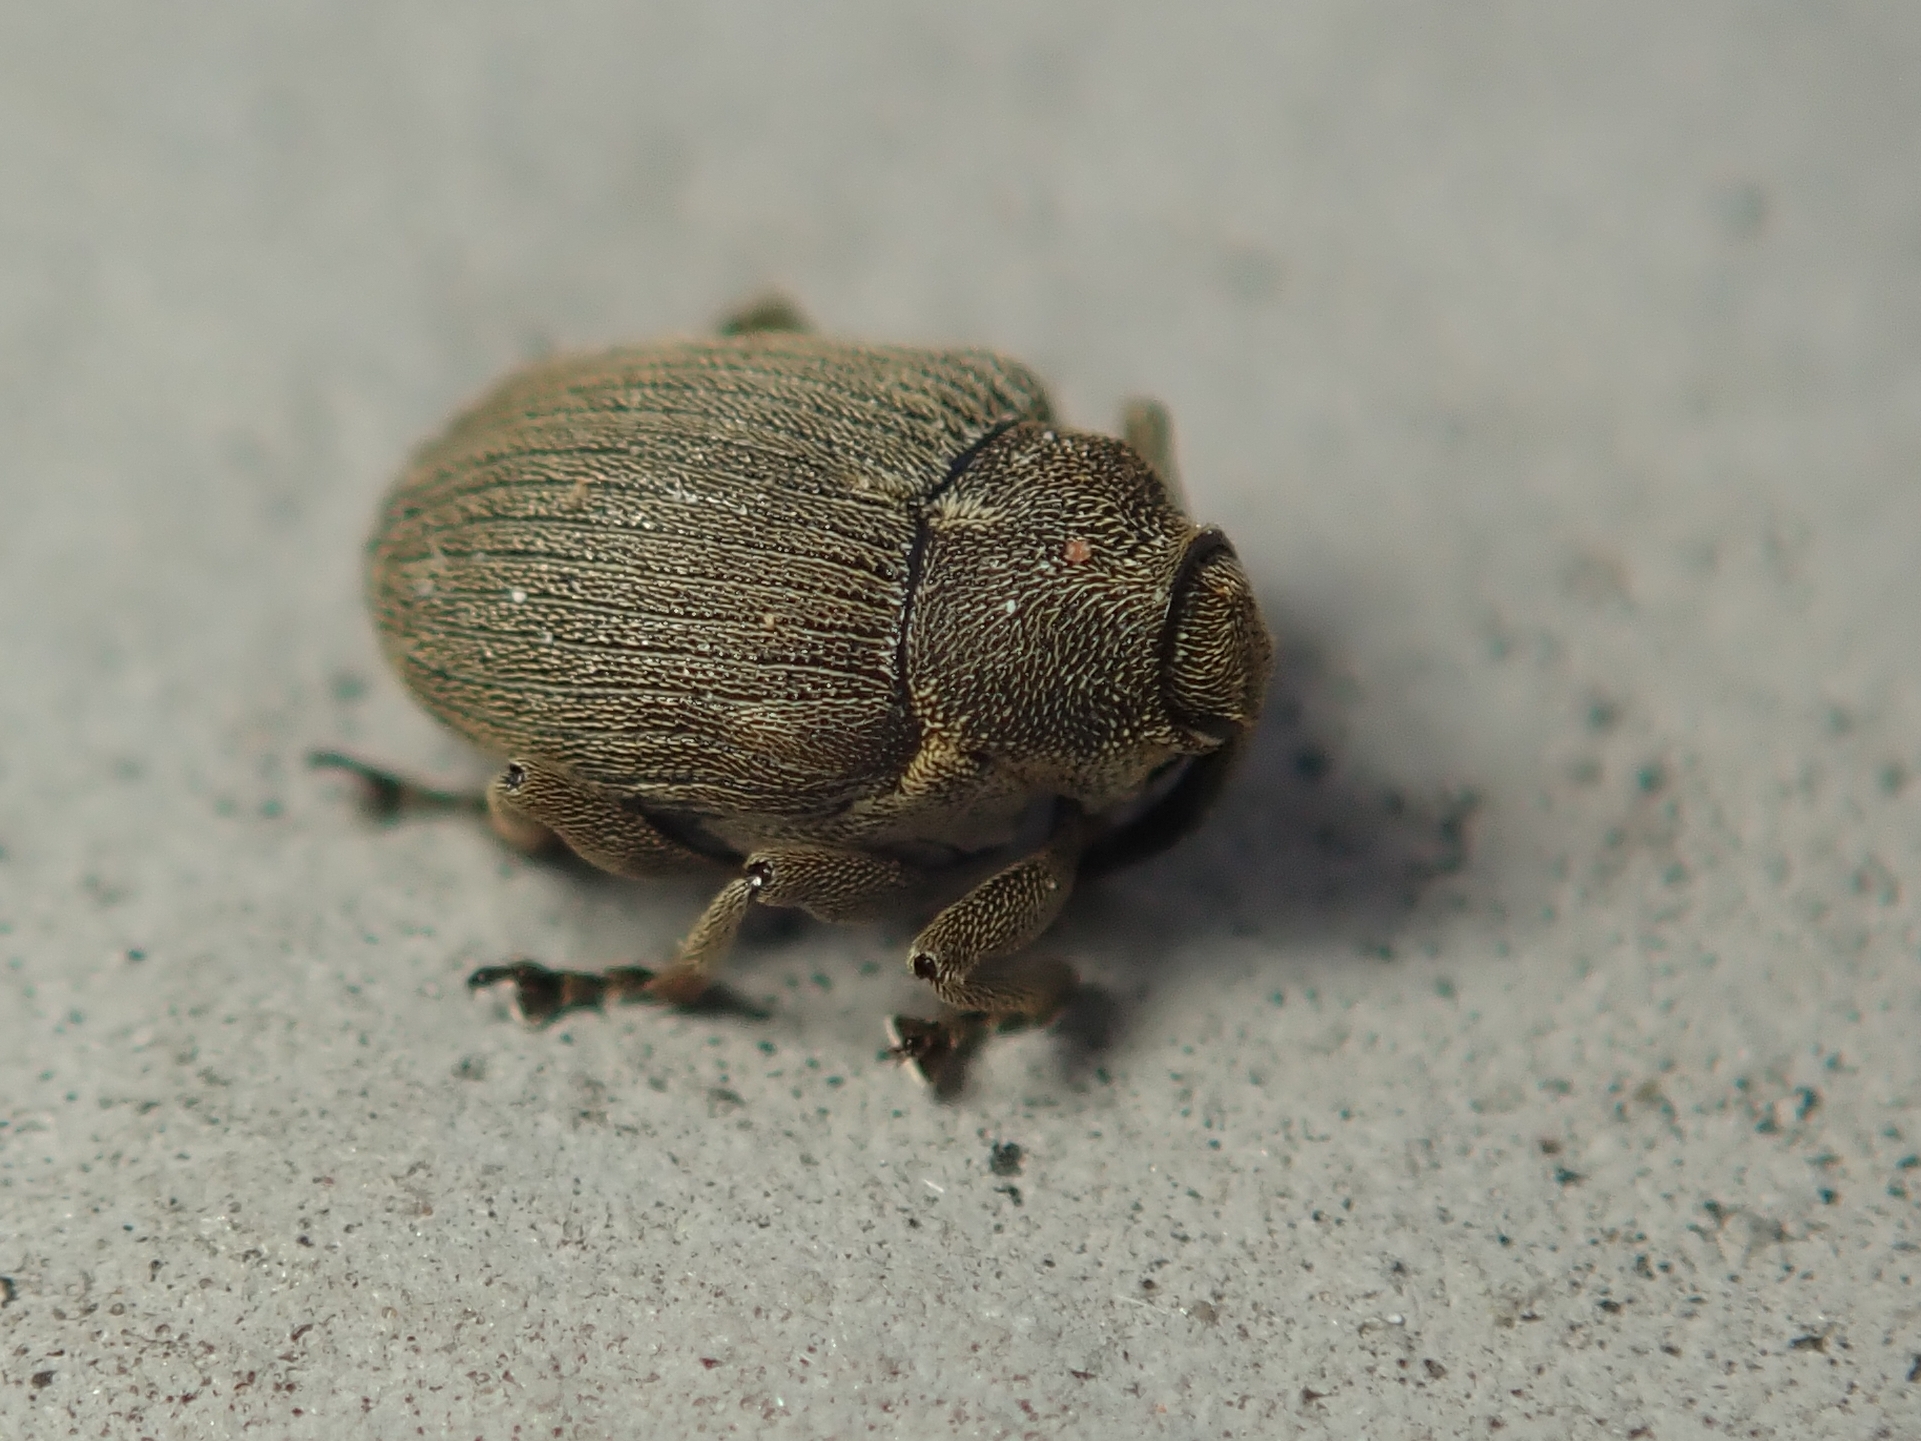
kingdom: Animalia
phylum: Arthropoda
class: Insecta
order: Coleoptera
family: Curculionidae
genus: Ceutorhynchus
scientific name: Ceutorhynchus napi
